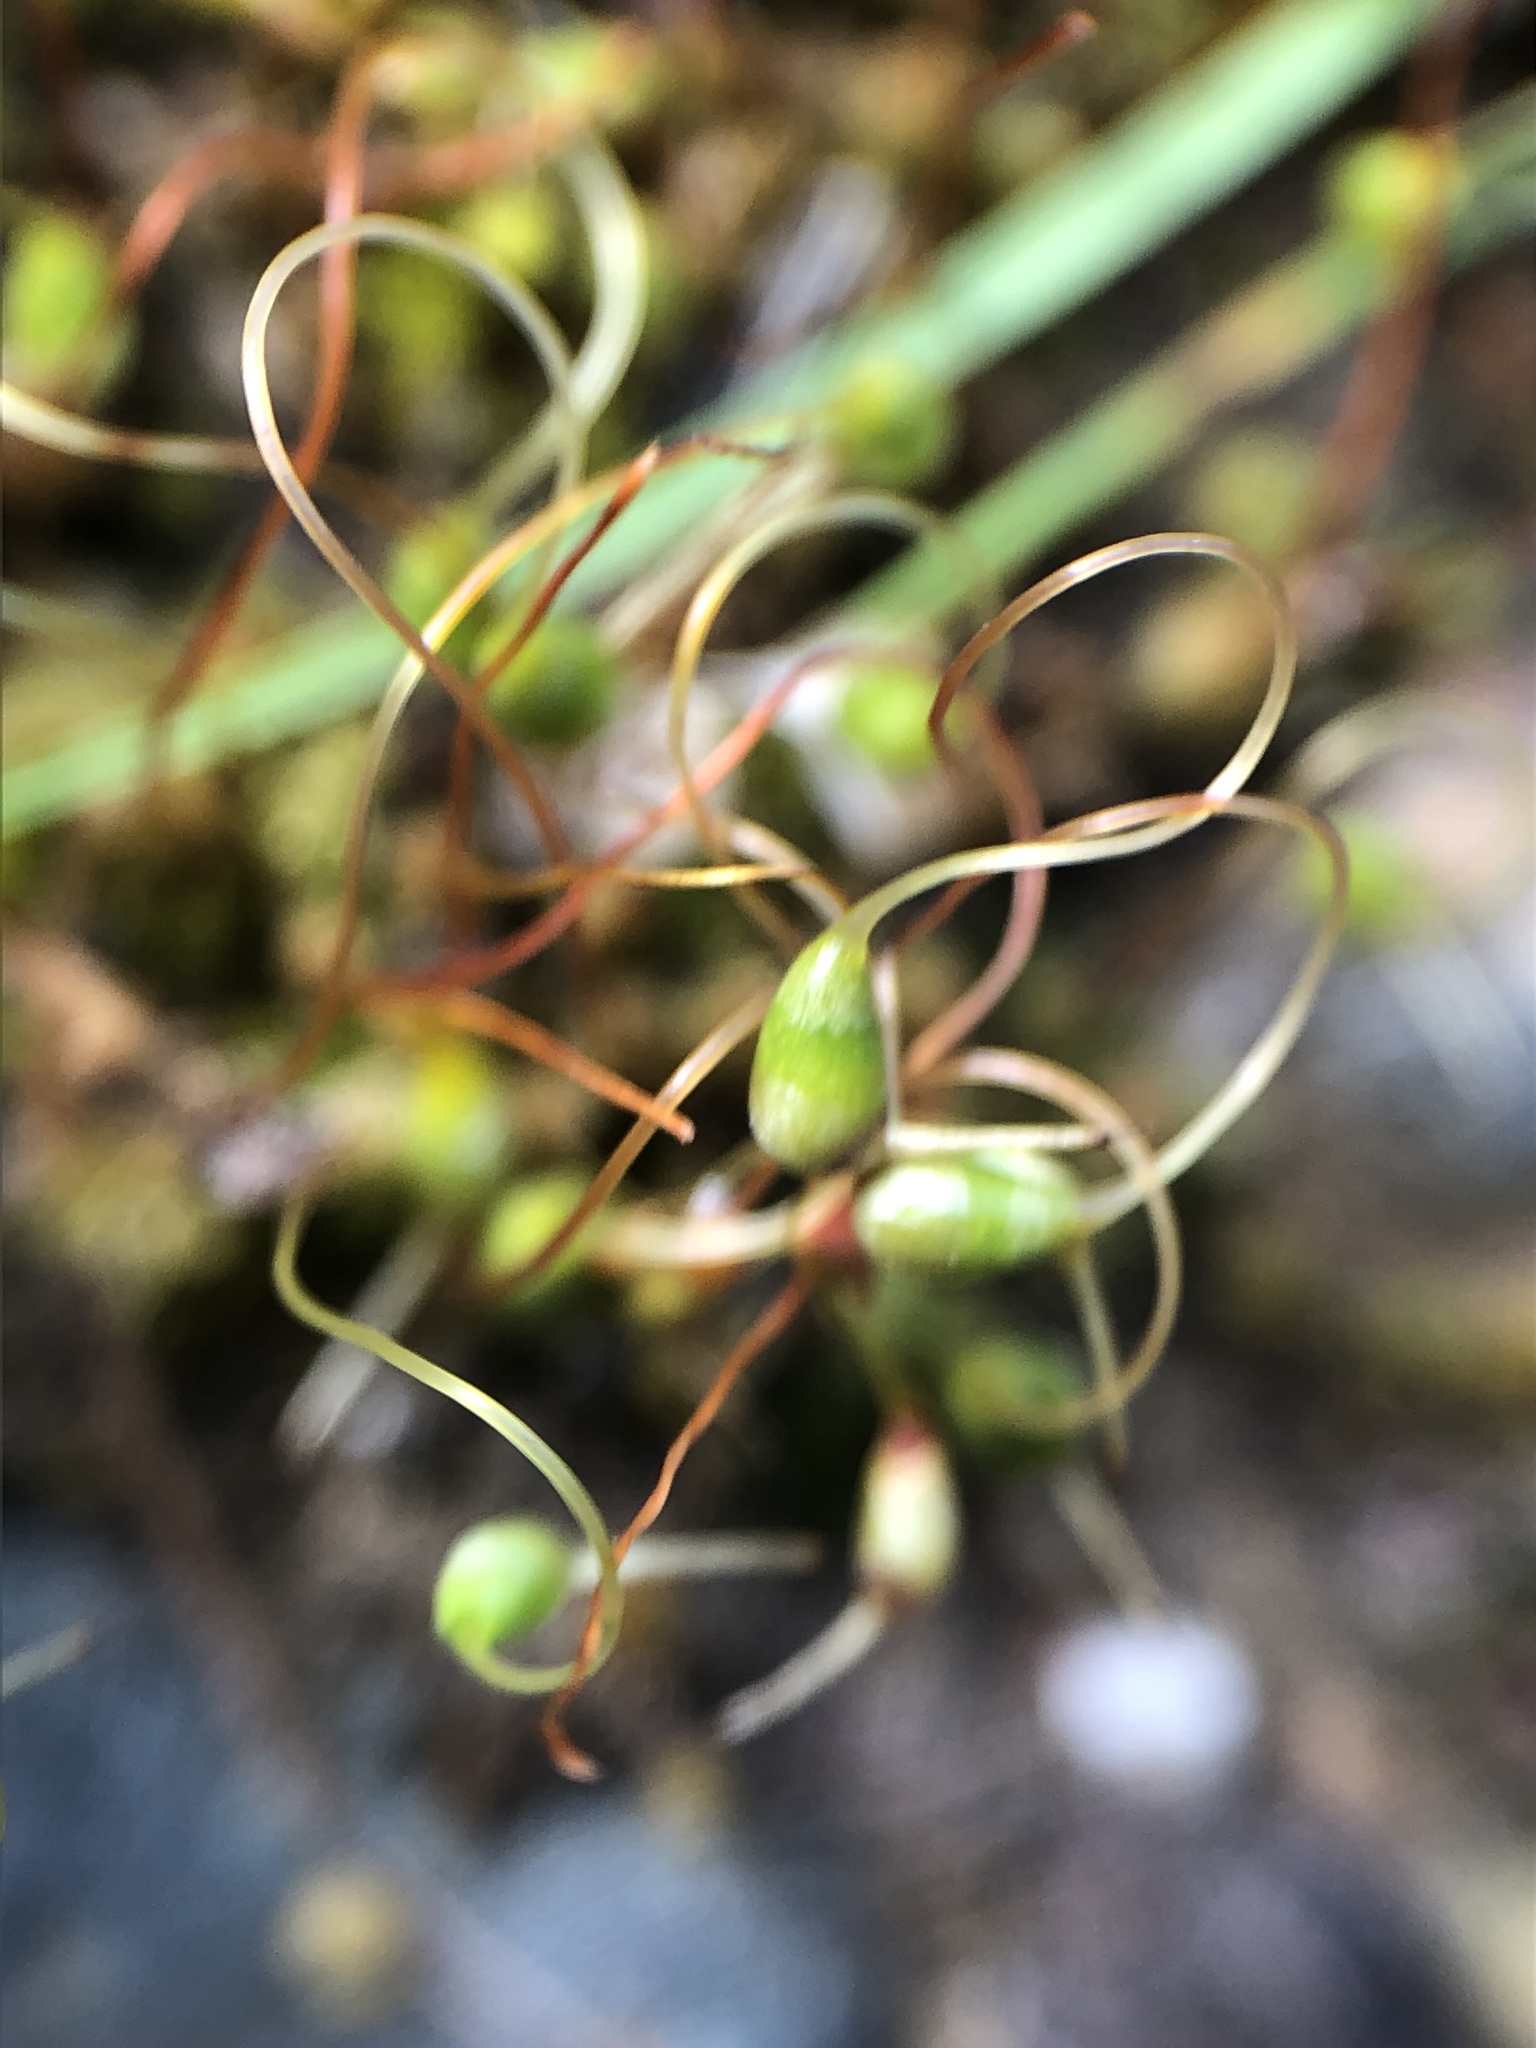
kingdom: Plantae
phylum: Bryophyta
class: Bryopsida
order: Funariales
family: Funariaceae
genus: Funaria
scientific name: Funaria hygrometrica
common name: Common cord moss
